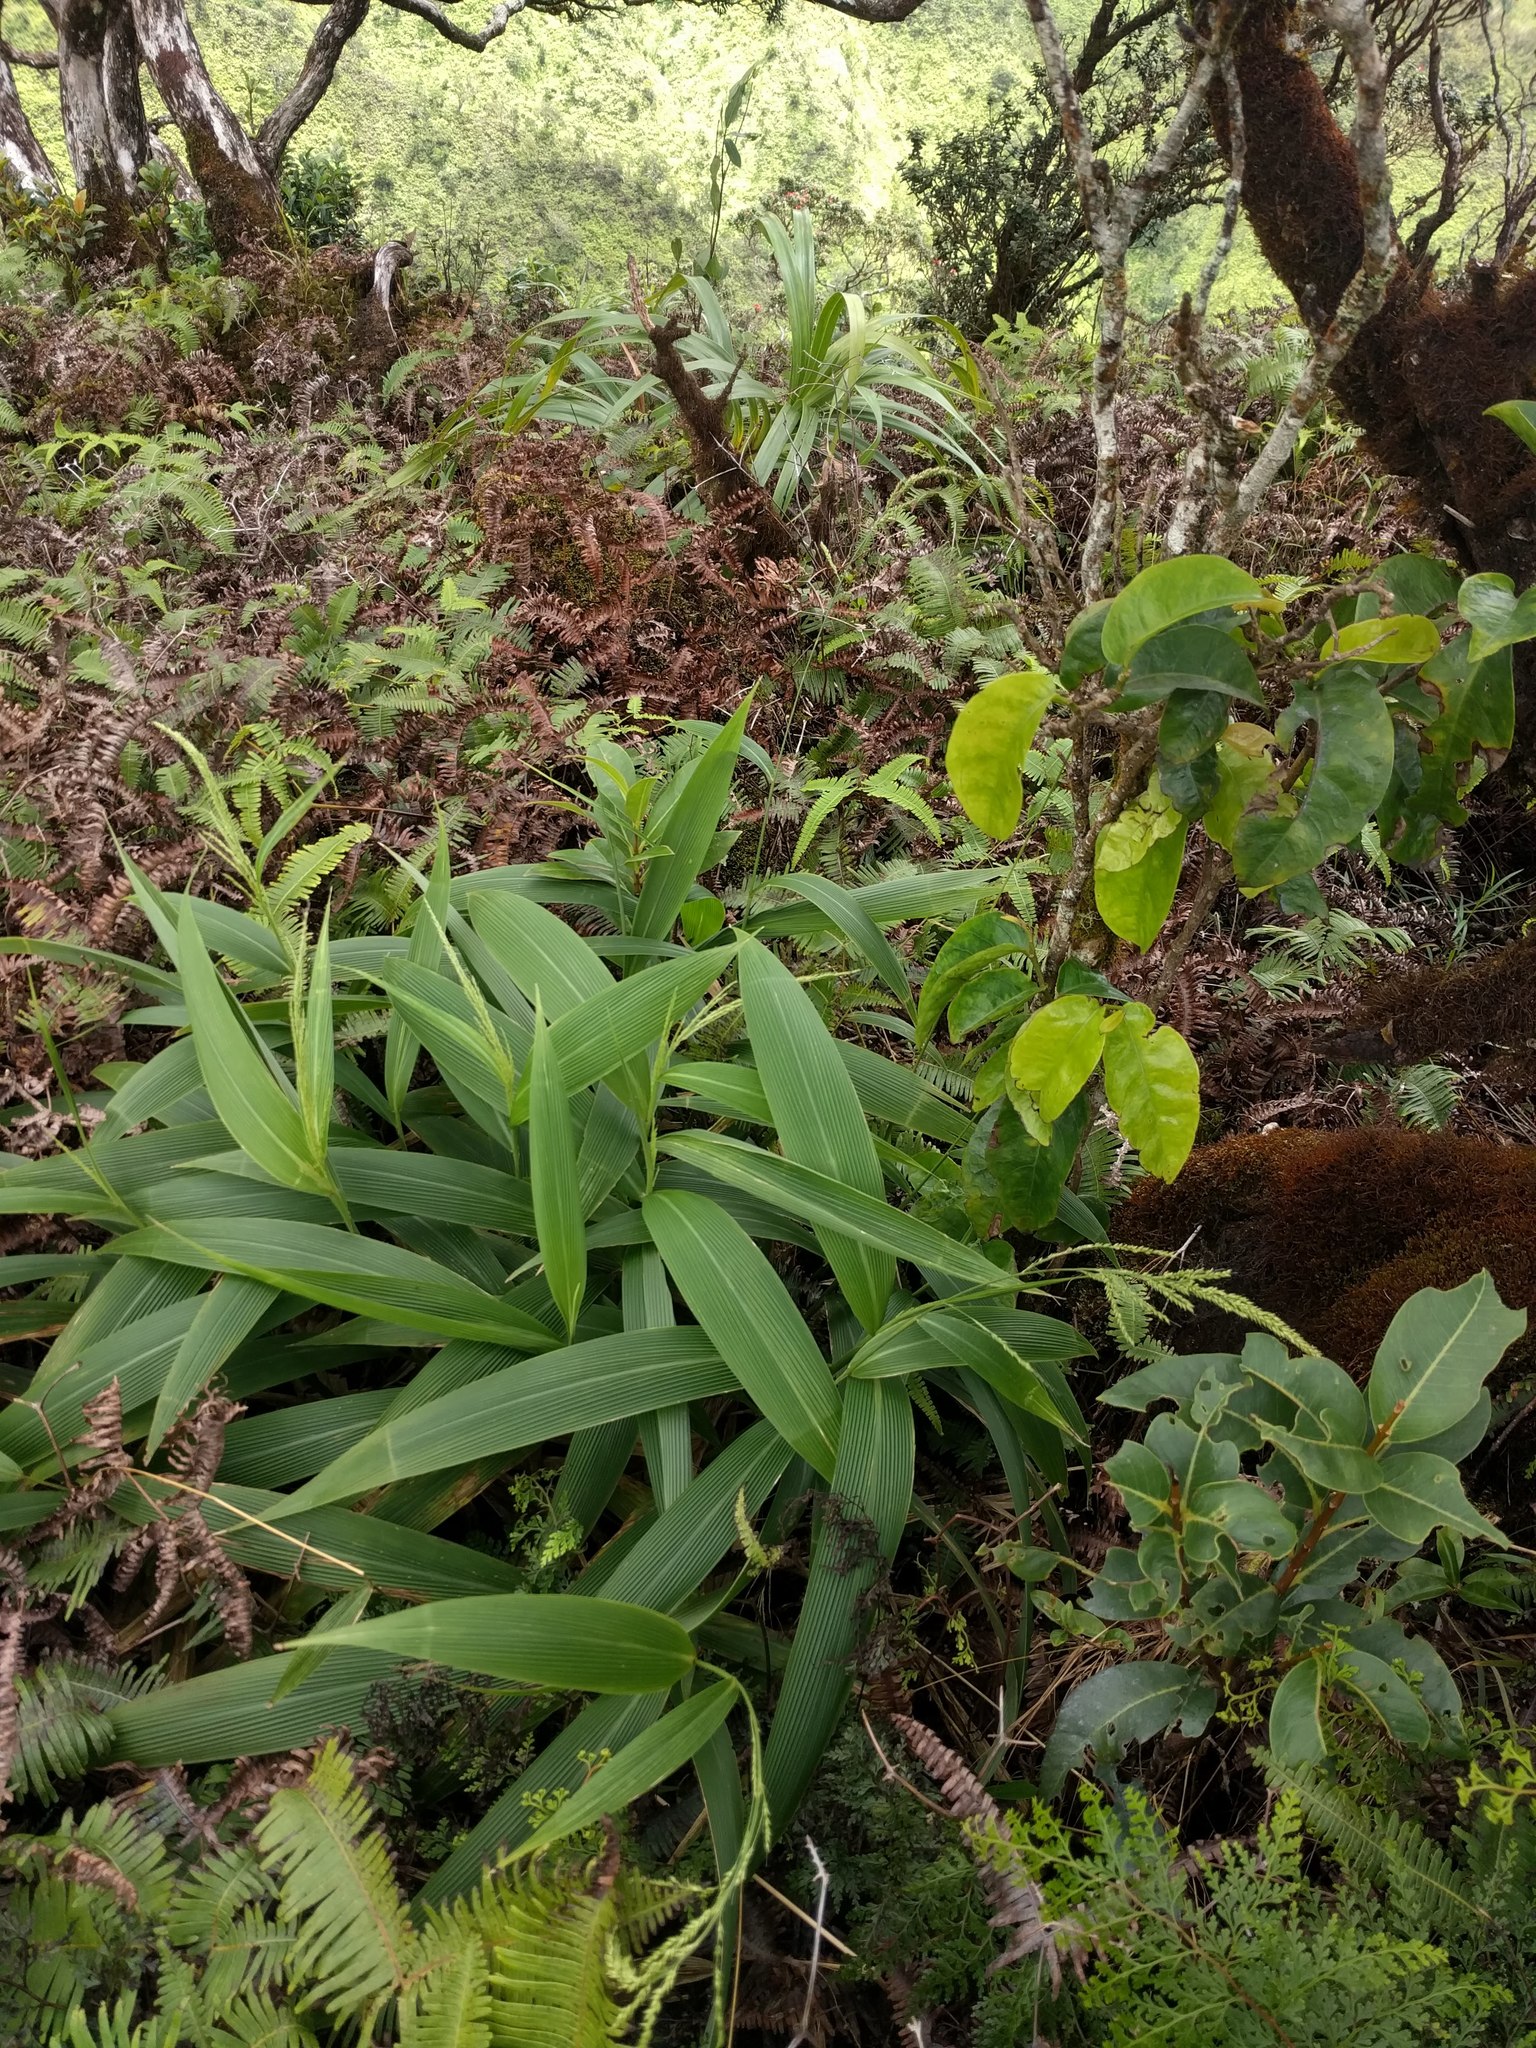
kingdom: Plantae
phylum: Tracheophyta
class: Liliopsida
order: Poales
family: Poaceae
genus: Setaria
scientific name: Setaria palmifolia
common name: Broadleaved bristlegrass
